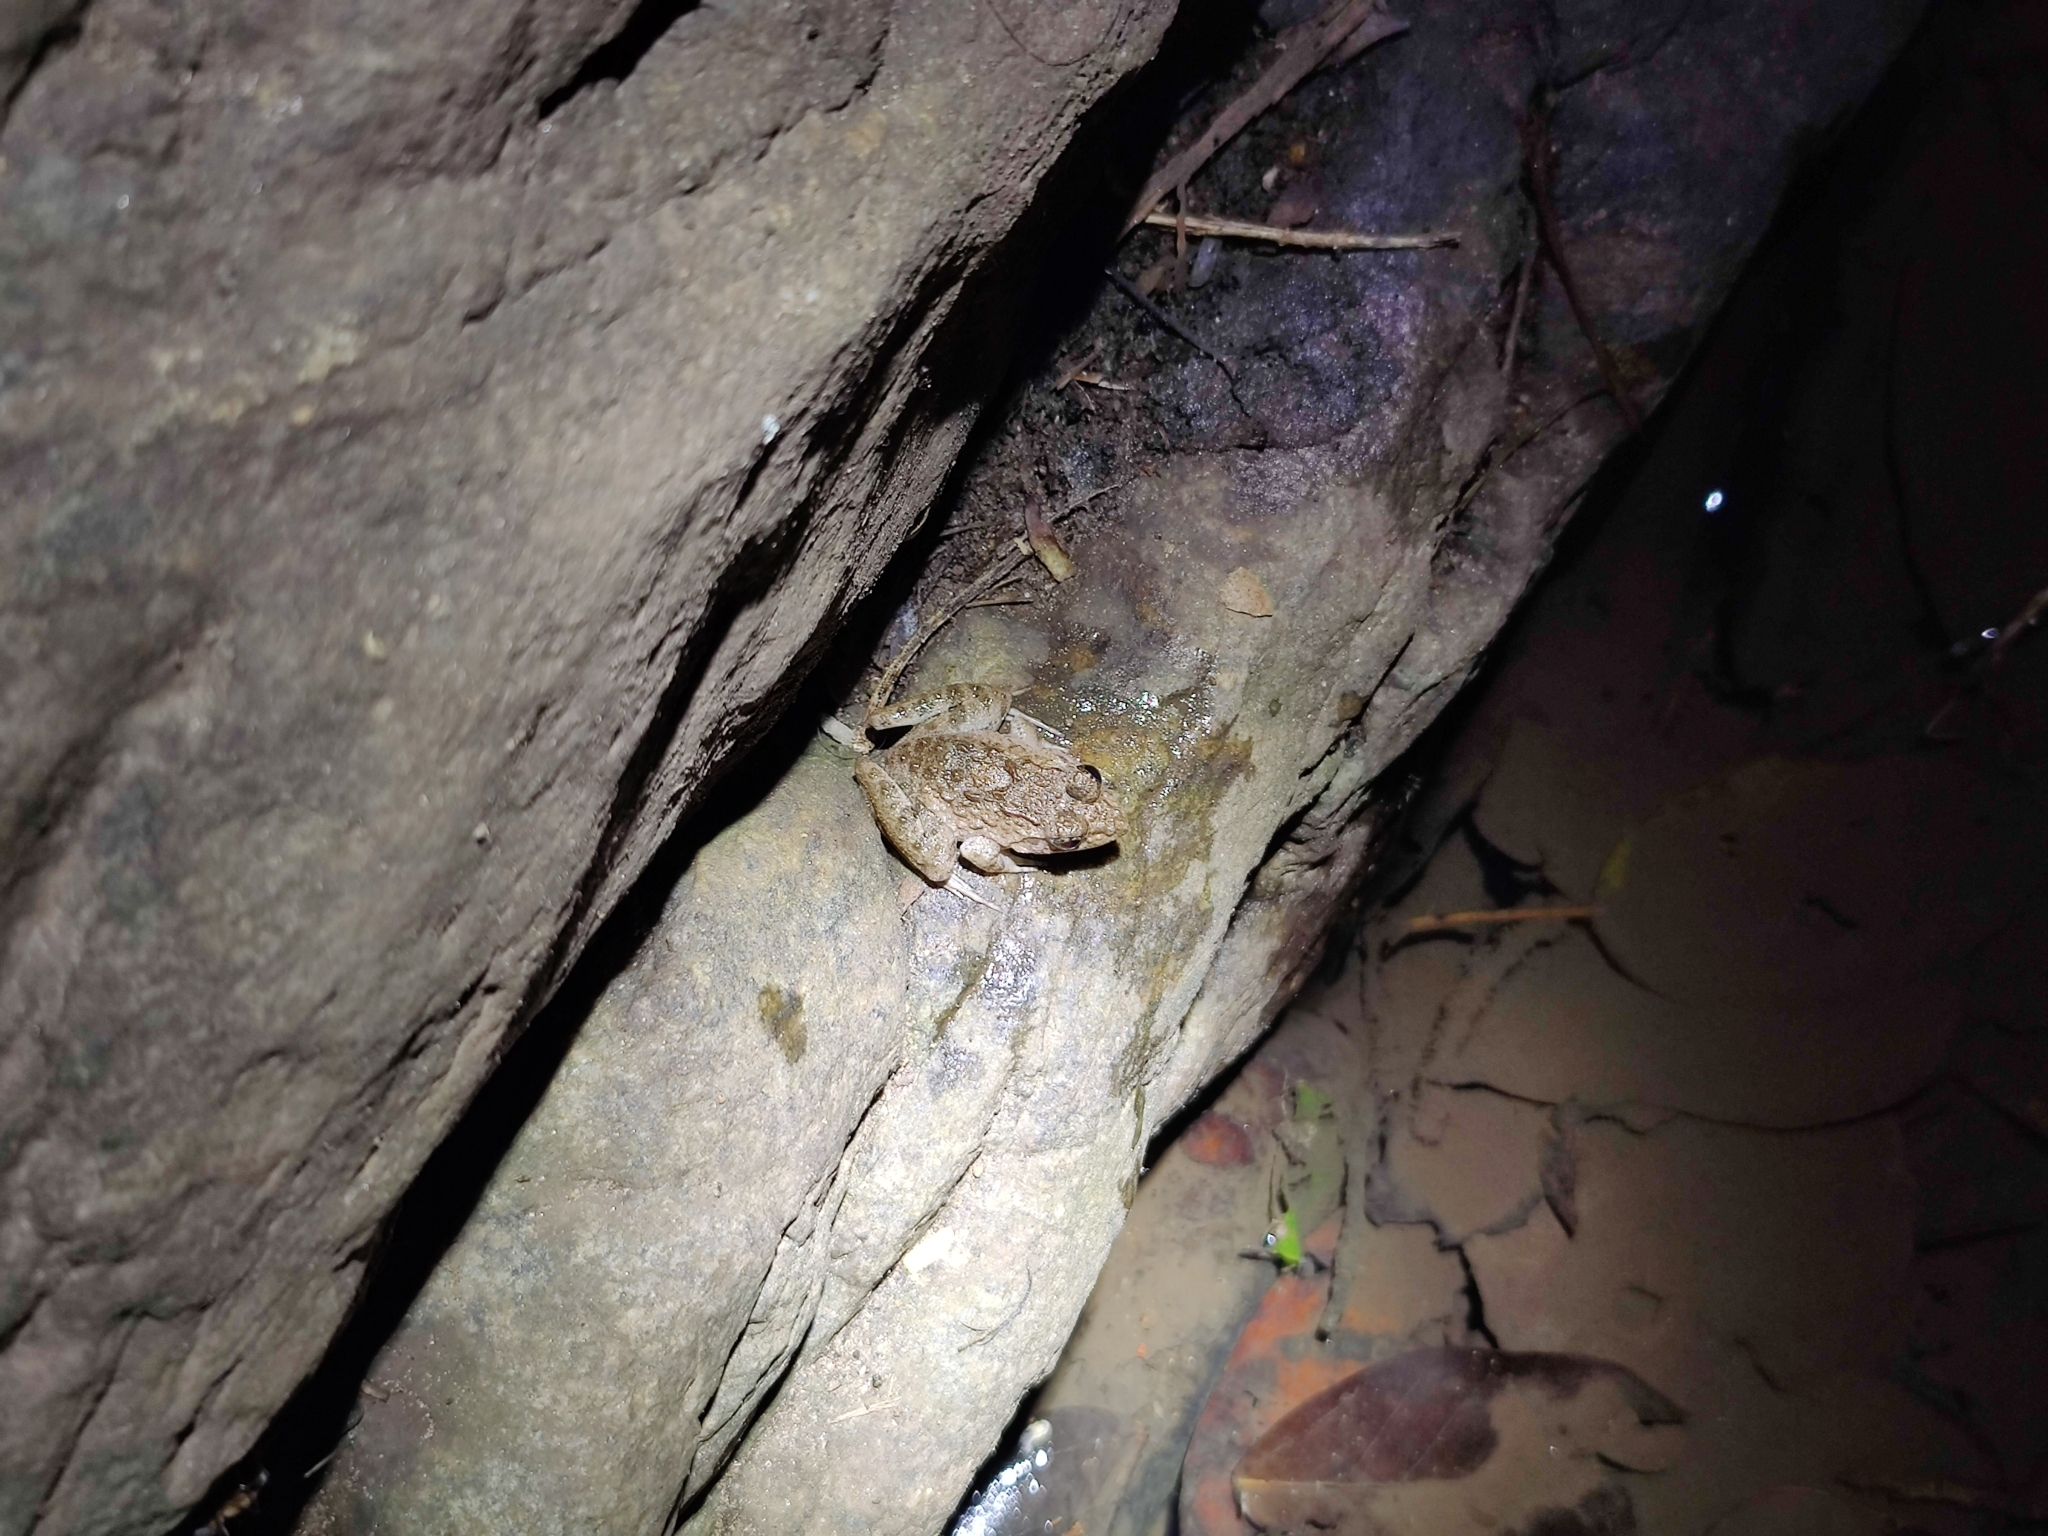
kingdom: Animalia
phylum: Chordata
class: Amphibia
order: Anura
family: Dicroglossidae
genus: Euphlyctis
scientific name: Euphlyctis cyanophlyctis
